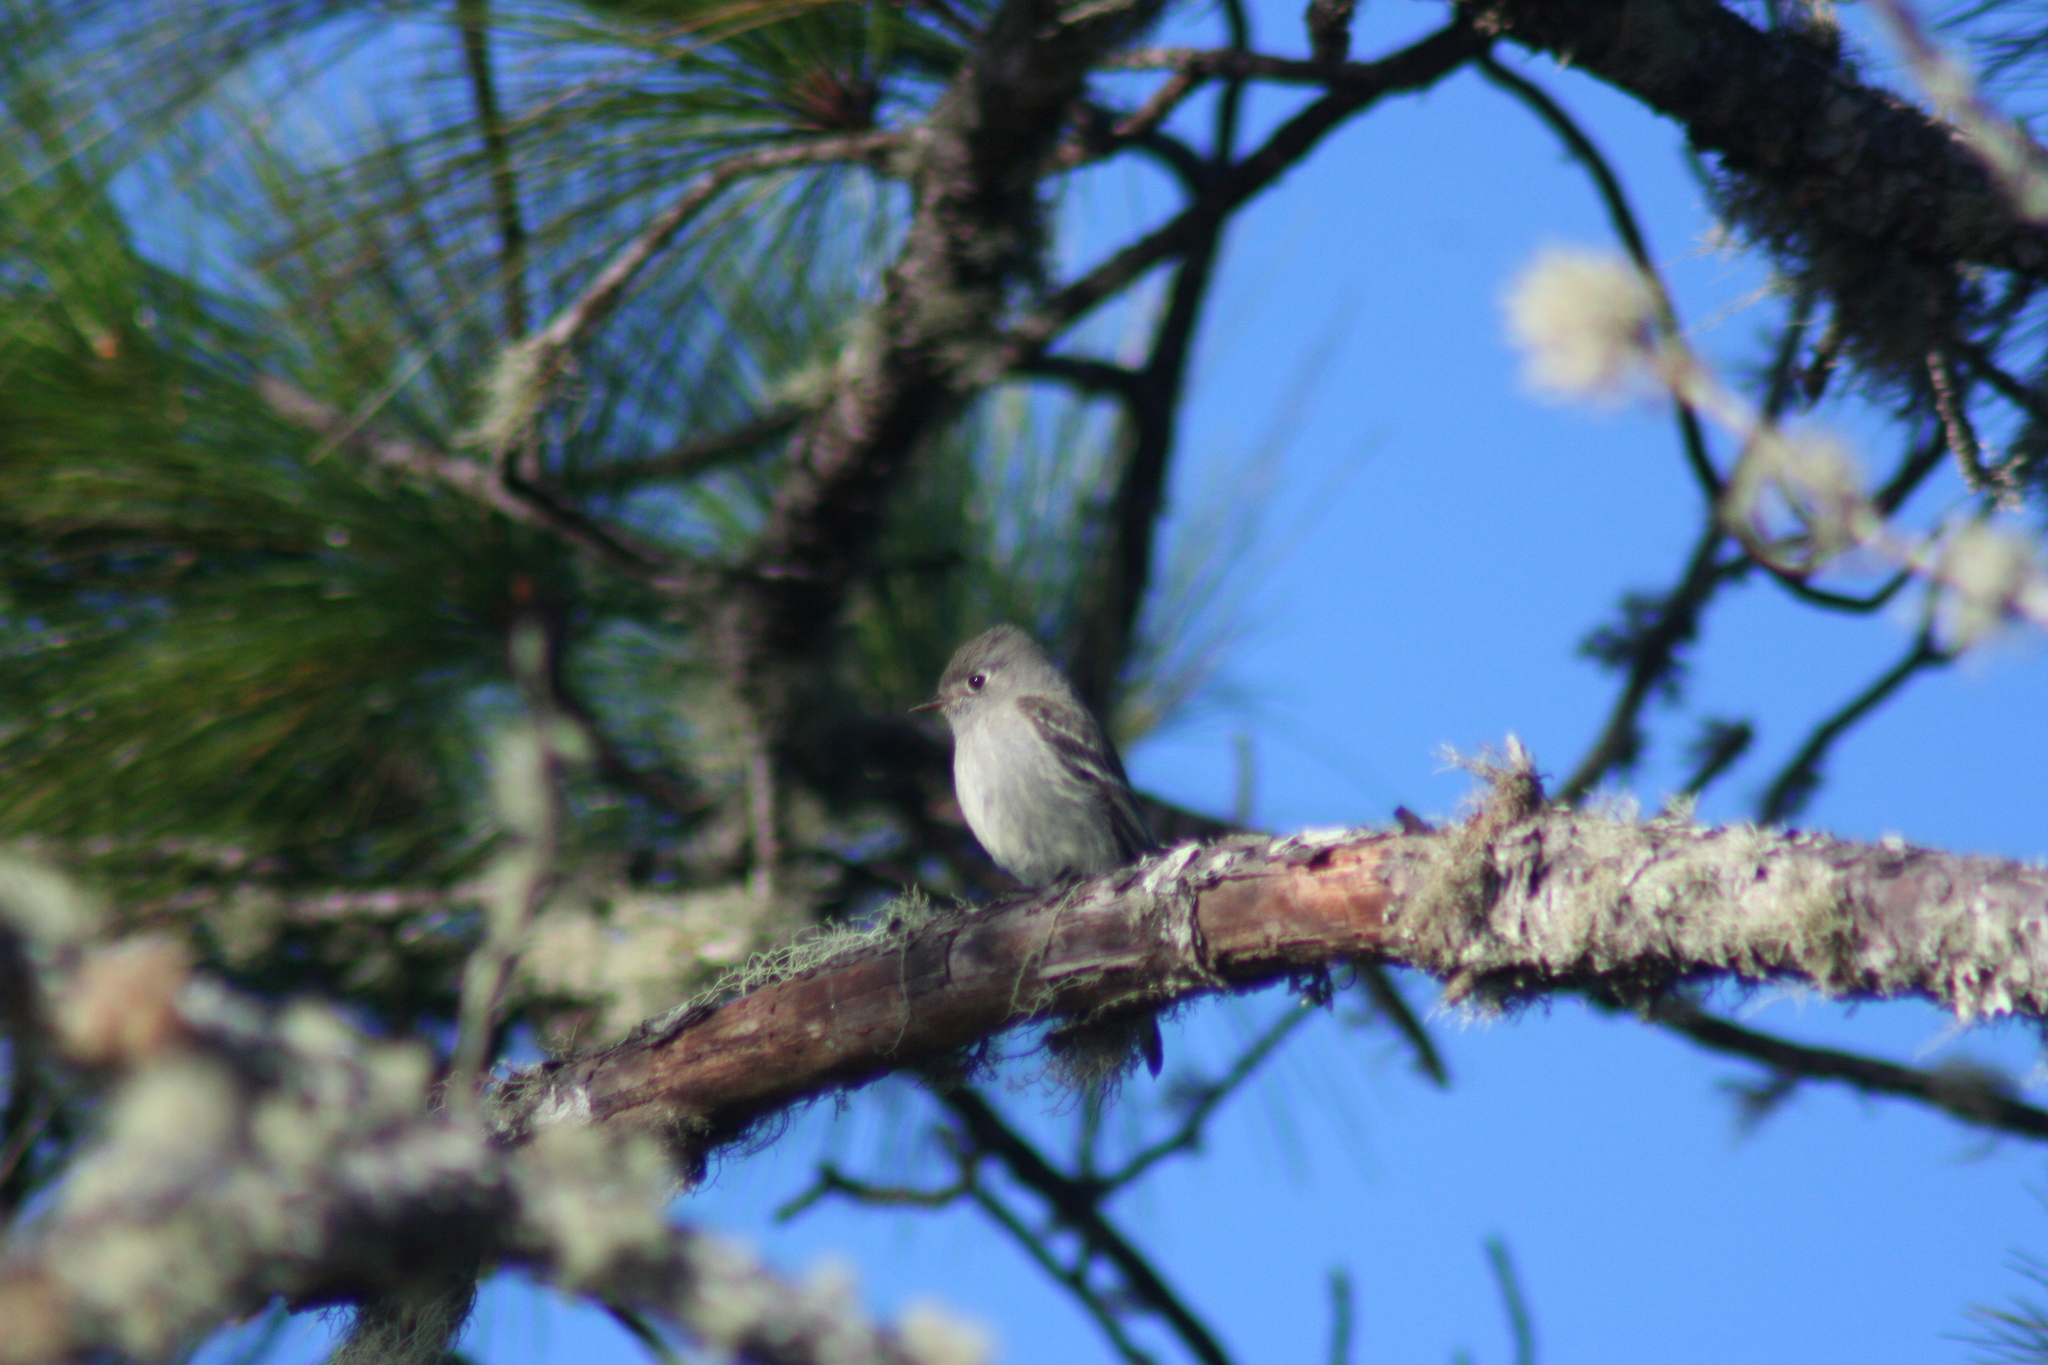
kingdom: Animalia
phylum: Chordata
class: Aves
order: Passeriformes
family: Tyrannidae
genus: Empidonax
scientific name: Empidonax hammondii
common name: Hammond's flycatcher
